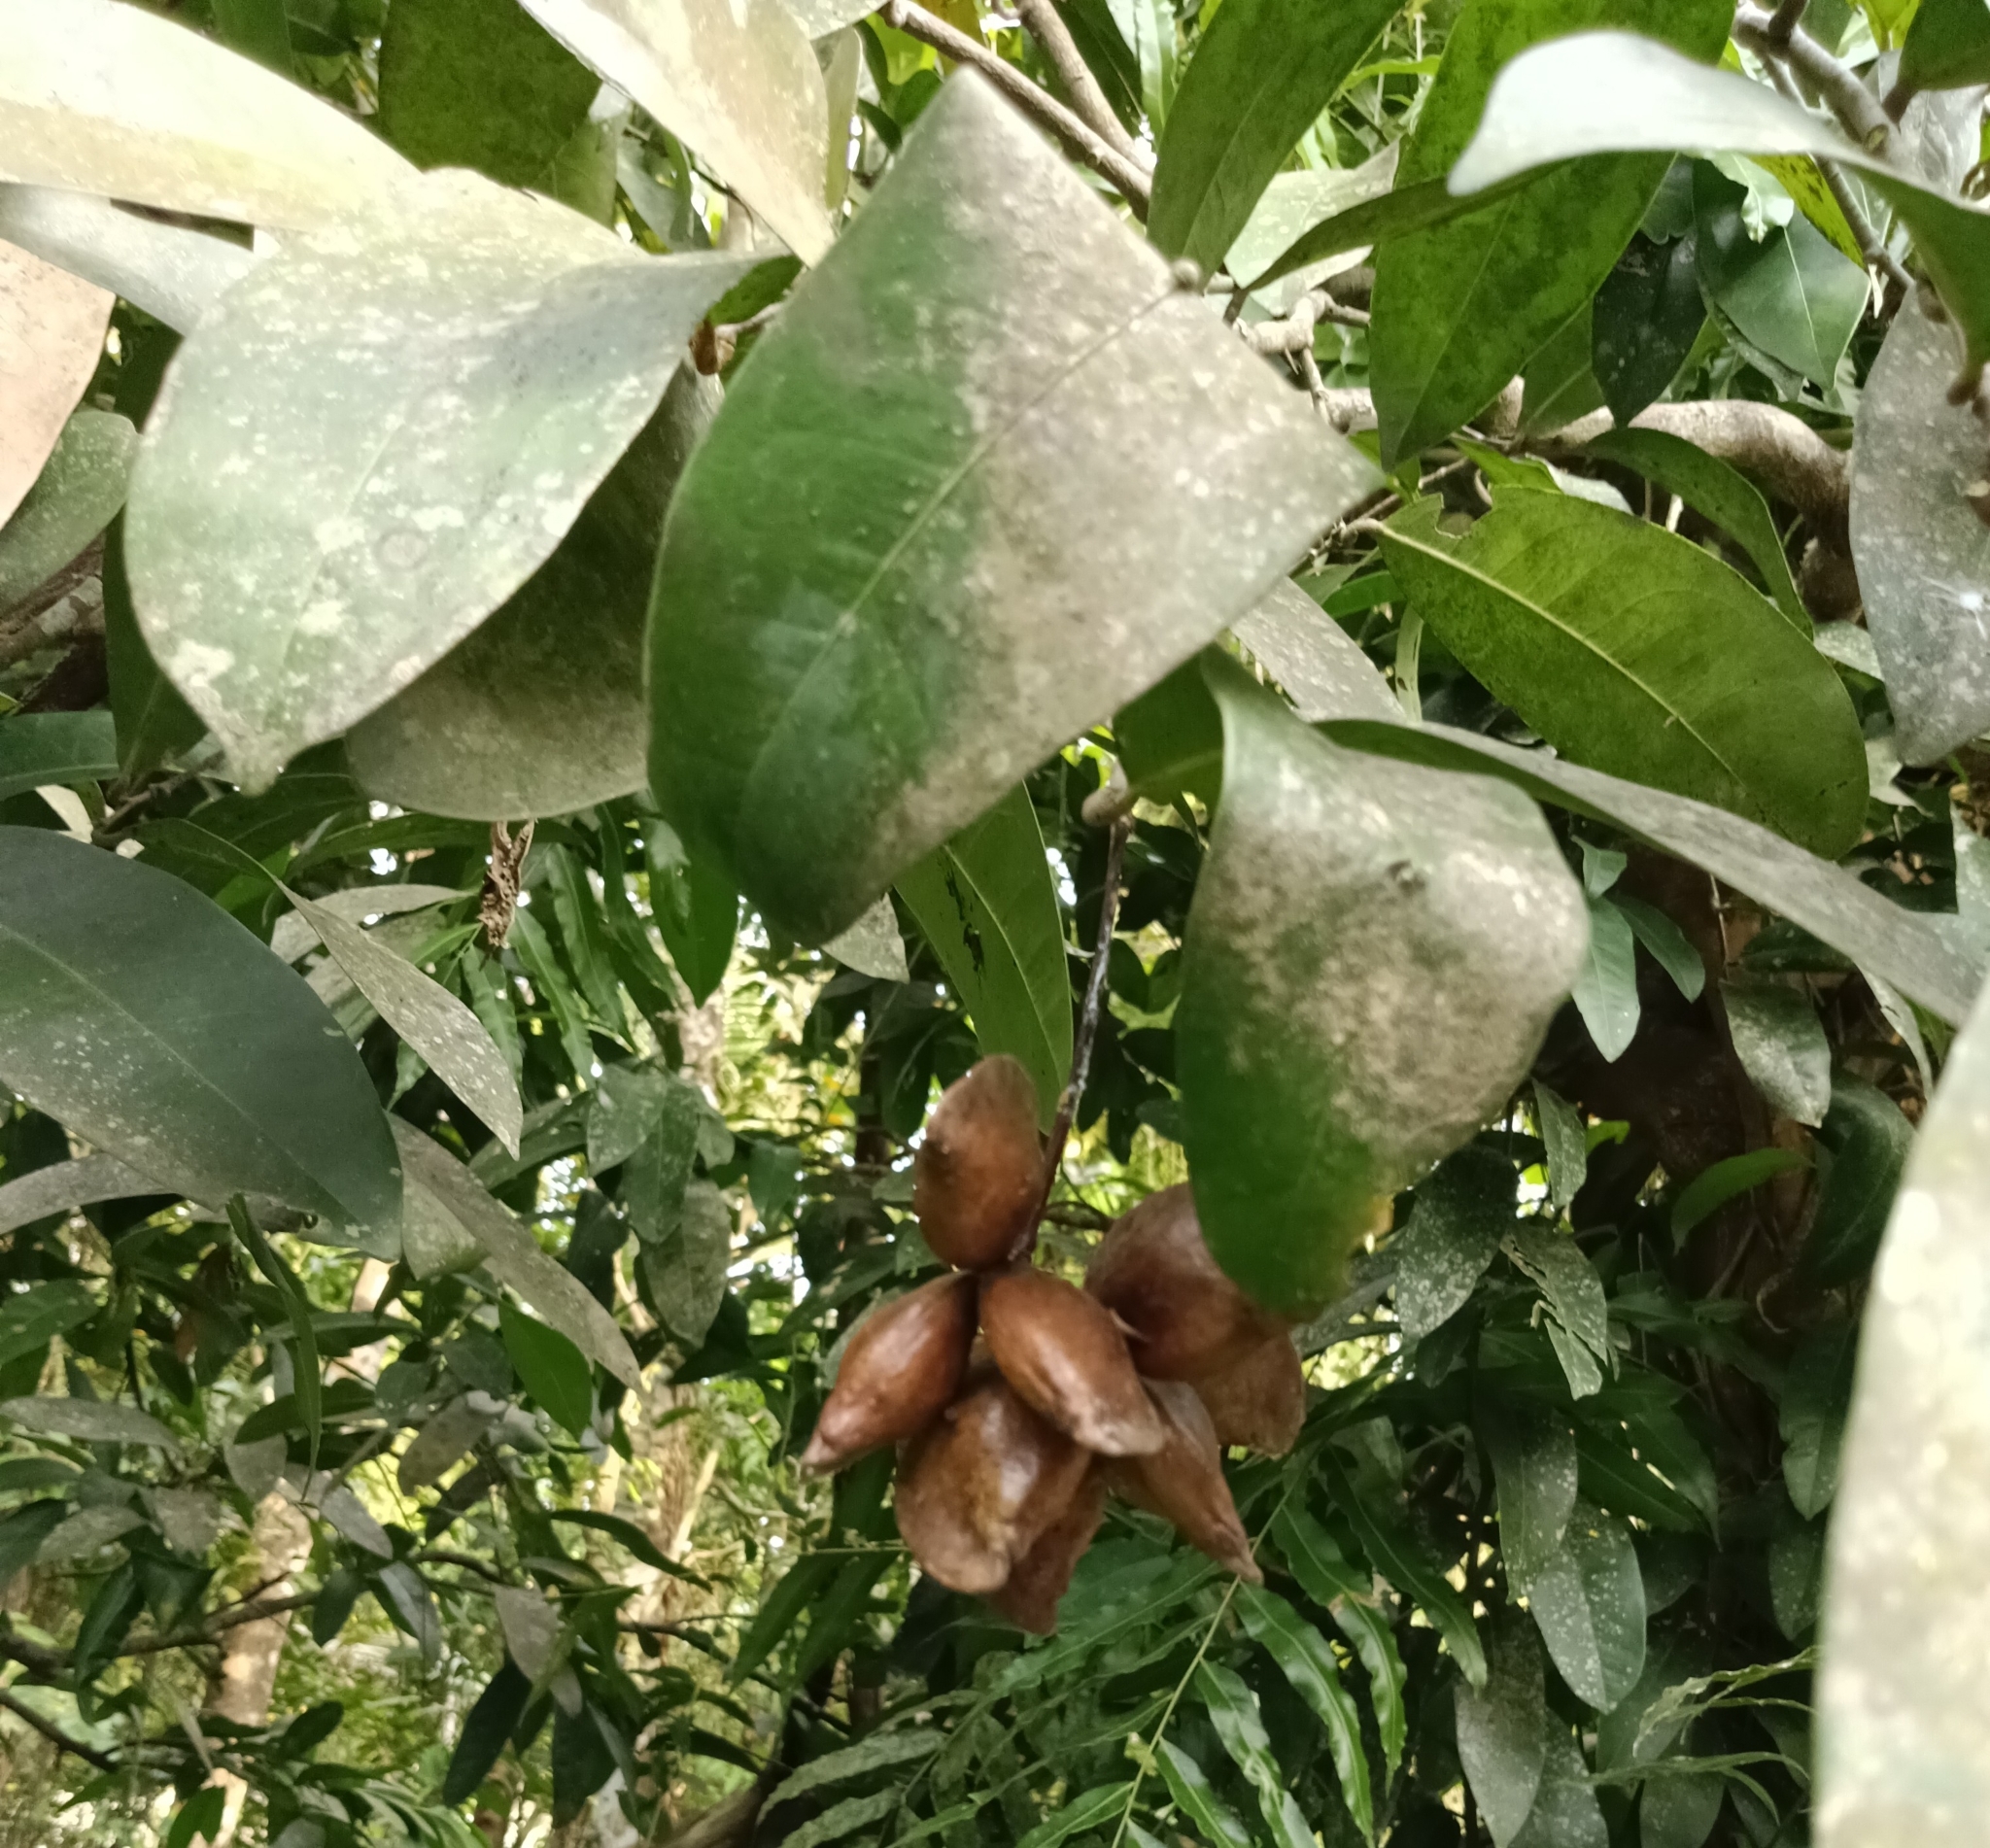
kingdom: Plantae
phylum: Tracheophyta
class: Magnoliopsida
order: Sapindales
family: Simaroubaceae
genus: Samadera
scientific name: Samadera indica
